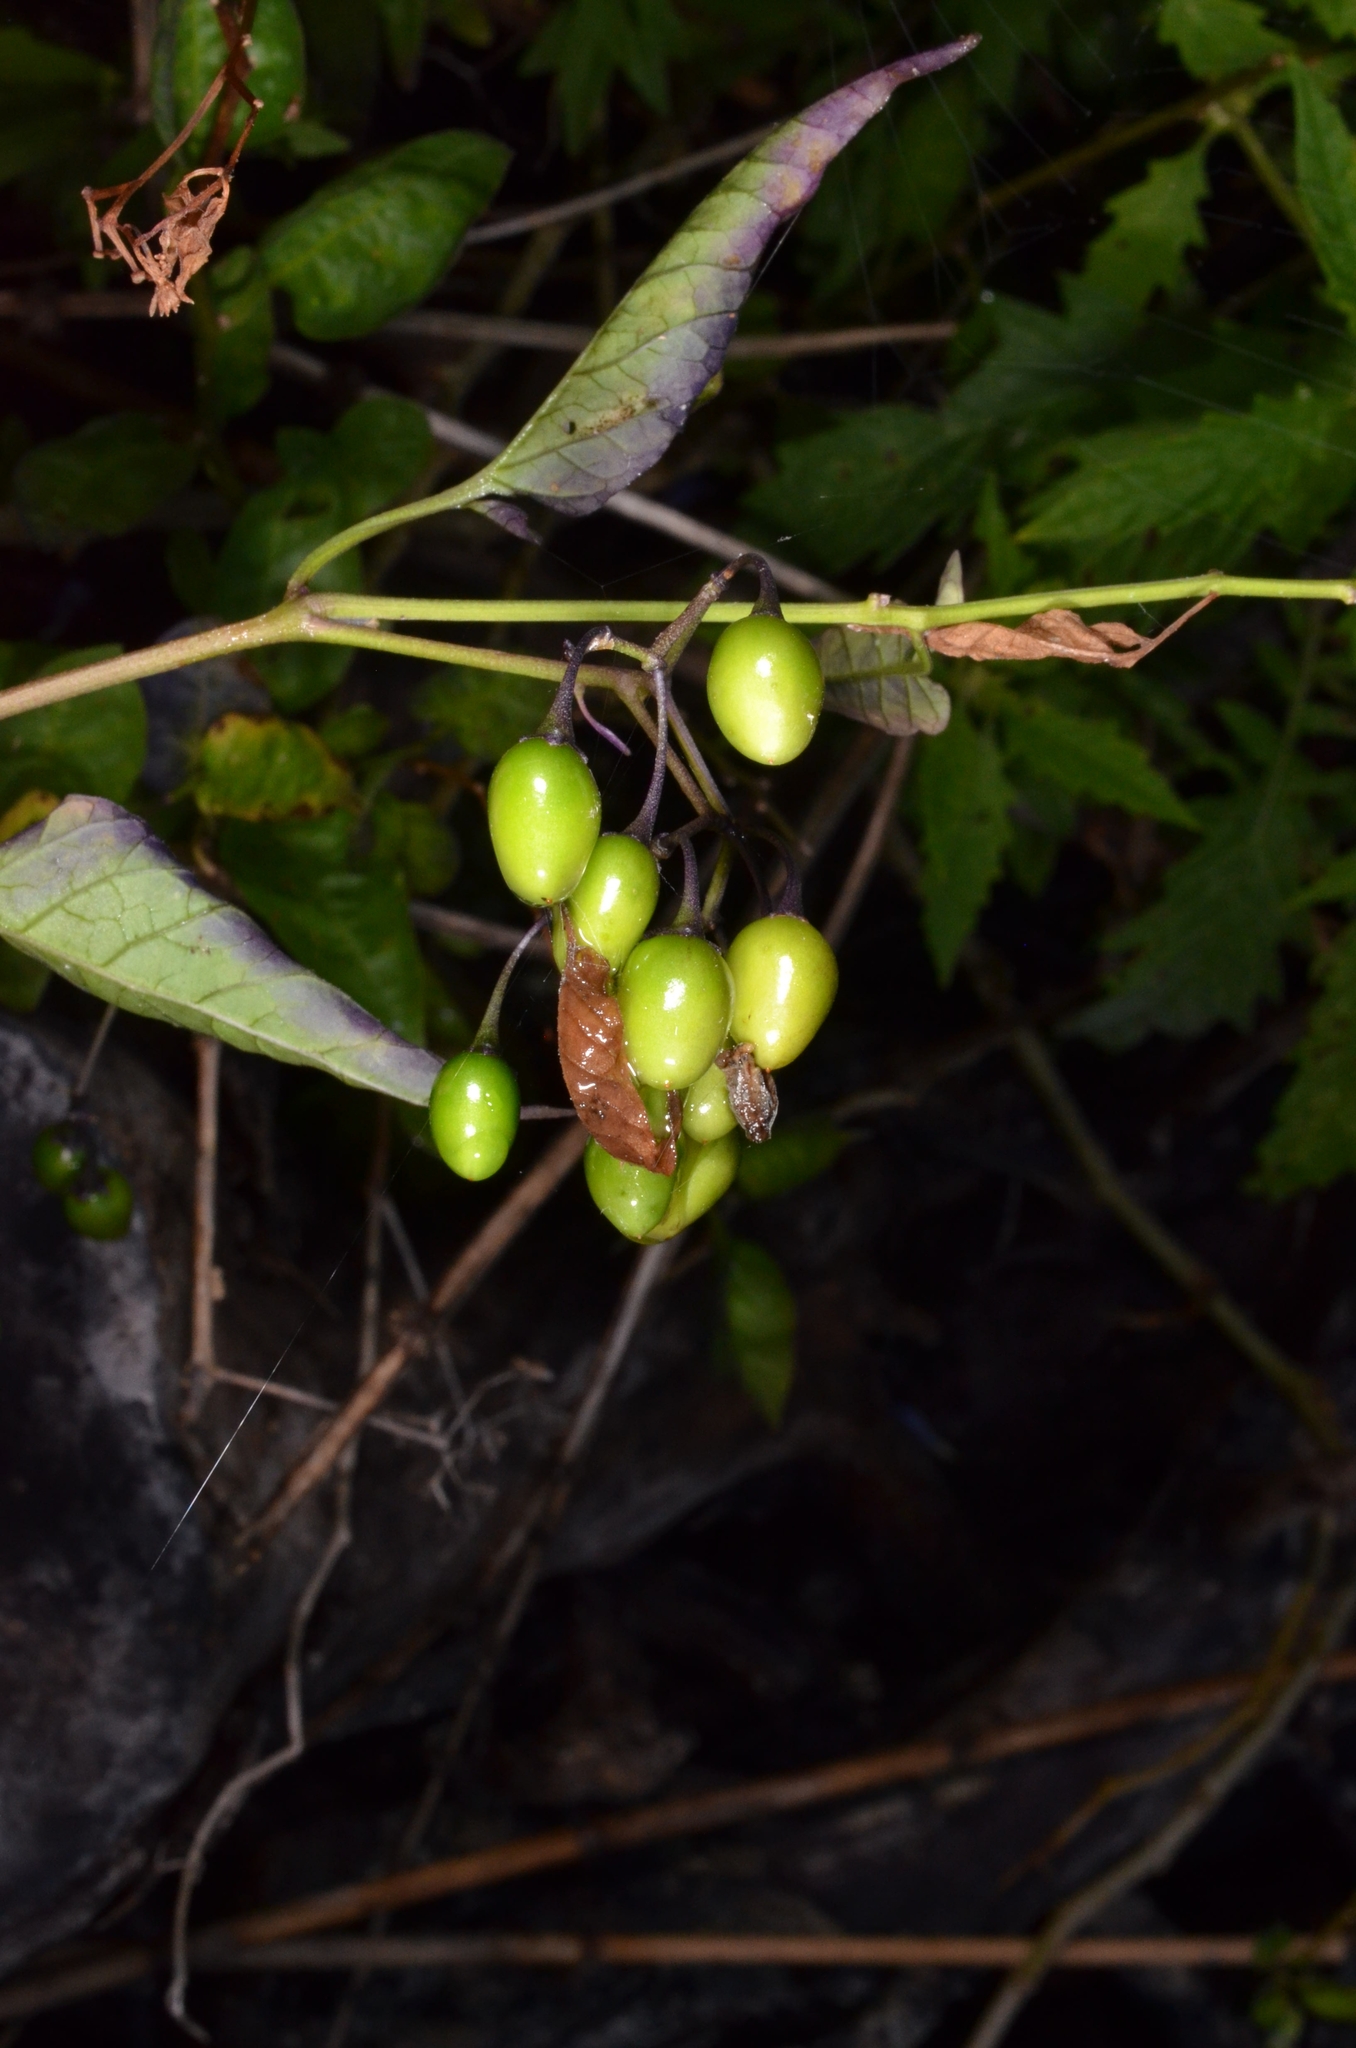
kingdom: Plantae
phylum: Tracheophyta
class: Magnoliopsida
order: Solanales
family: Solanaceae
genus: Solanum
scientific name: Solanum dulcamara
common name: Climbing nightshade
